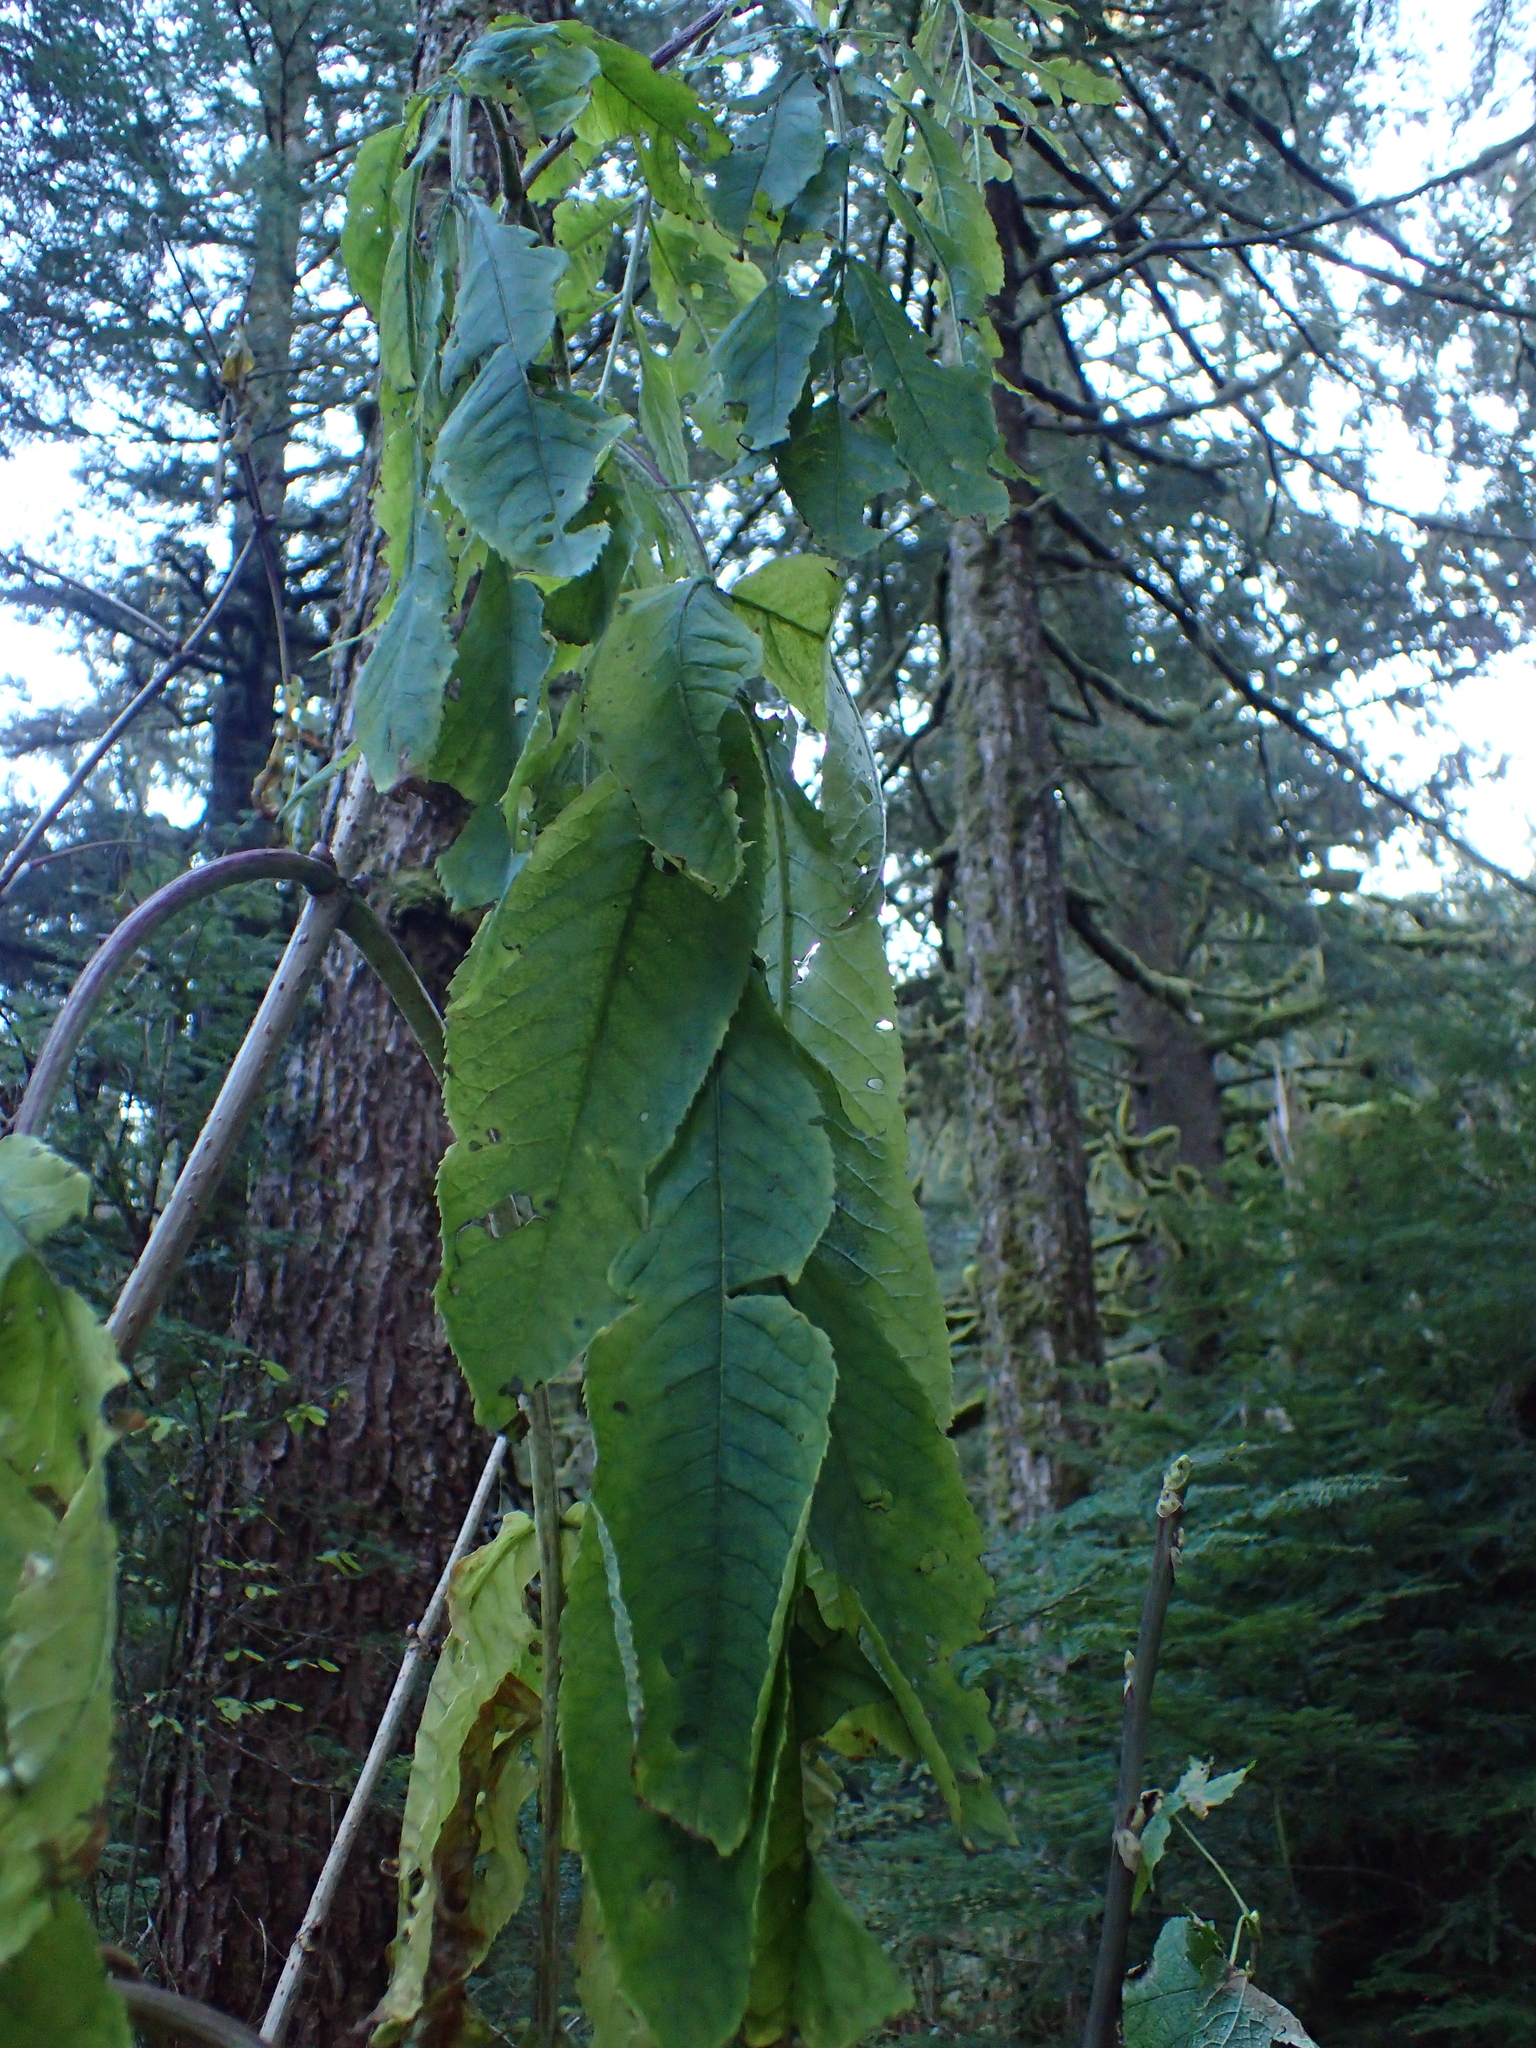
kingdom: Plantae
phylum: Tracheophyta
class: Magnoliopsida
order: Dipsacales
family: Viburnaceae
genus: Sambucus
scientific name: Sambucus racemosa
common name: Red-berried elder
